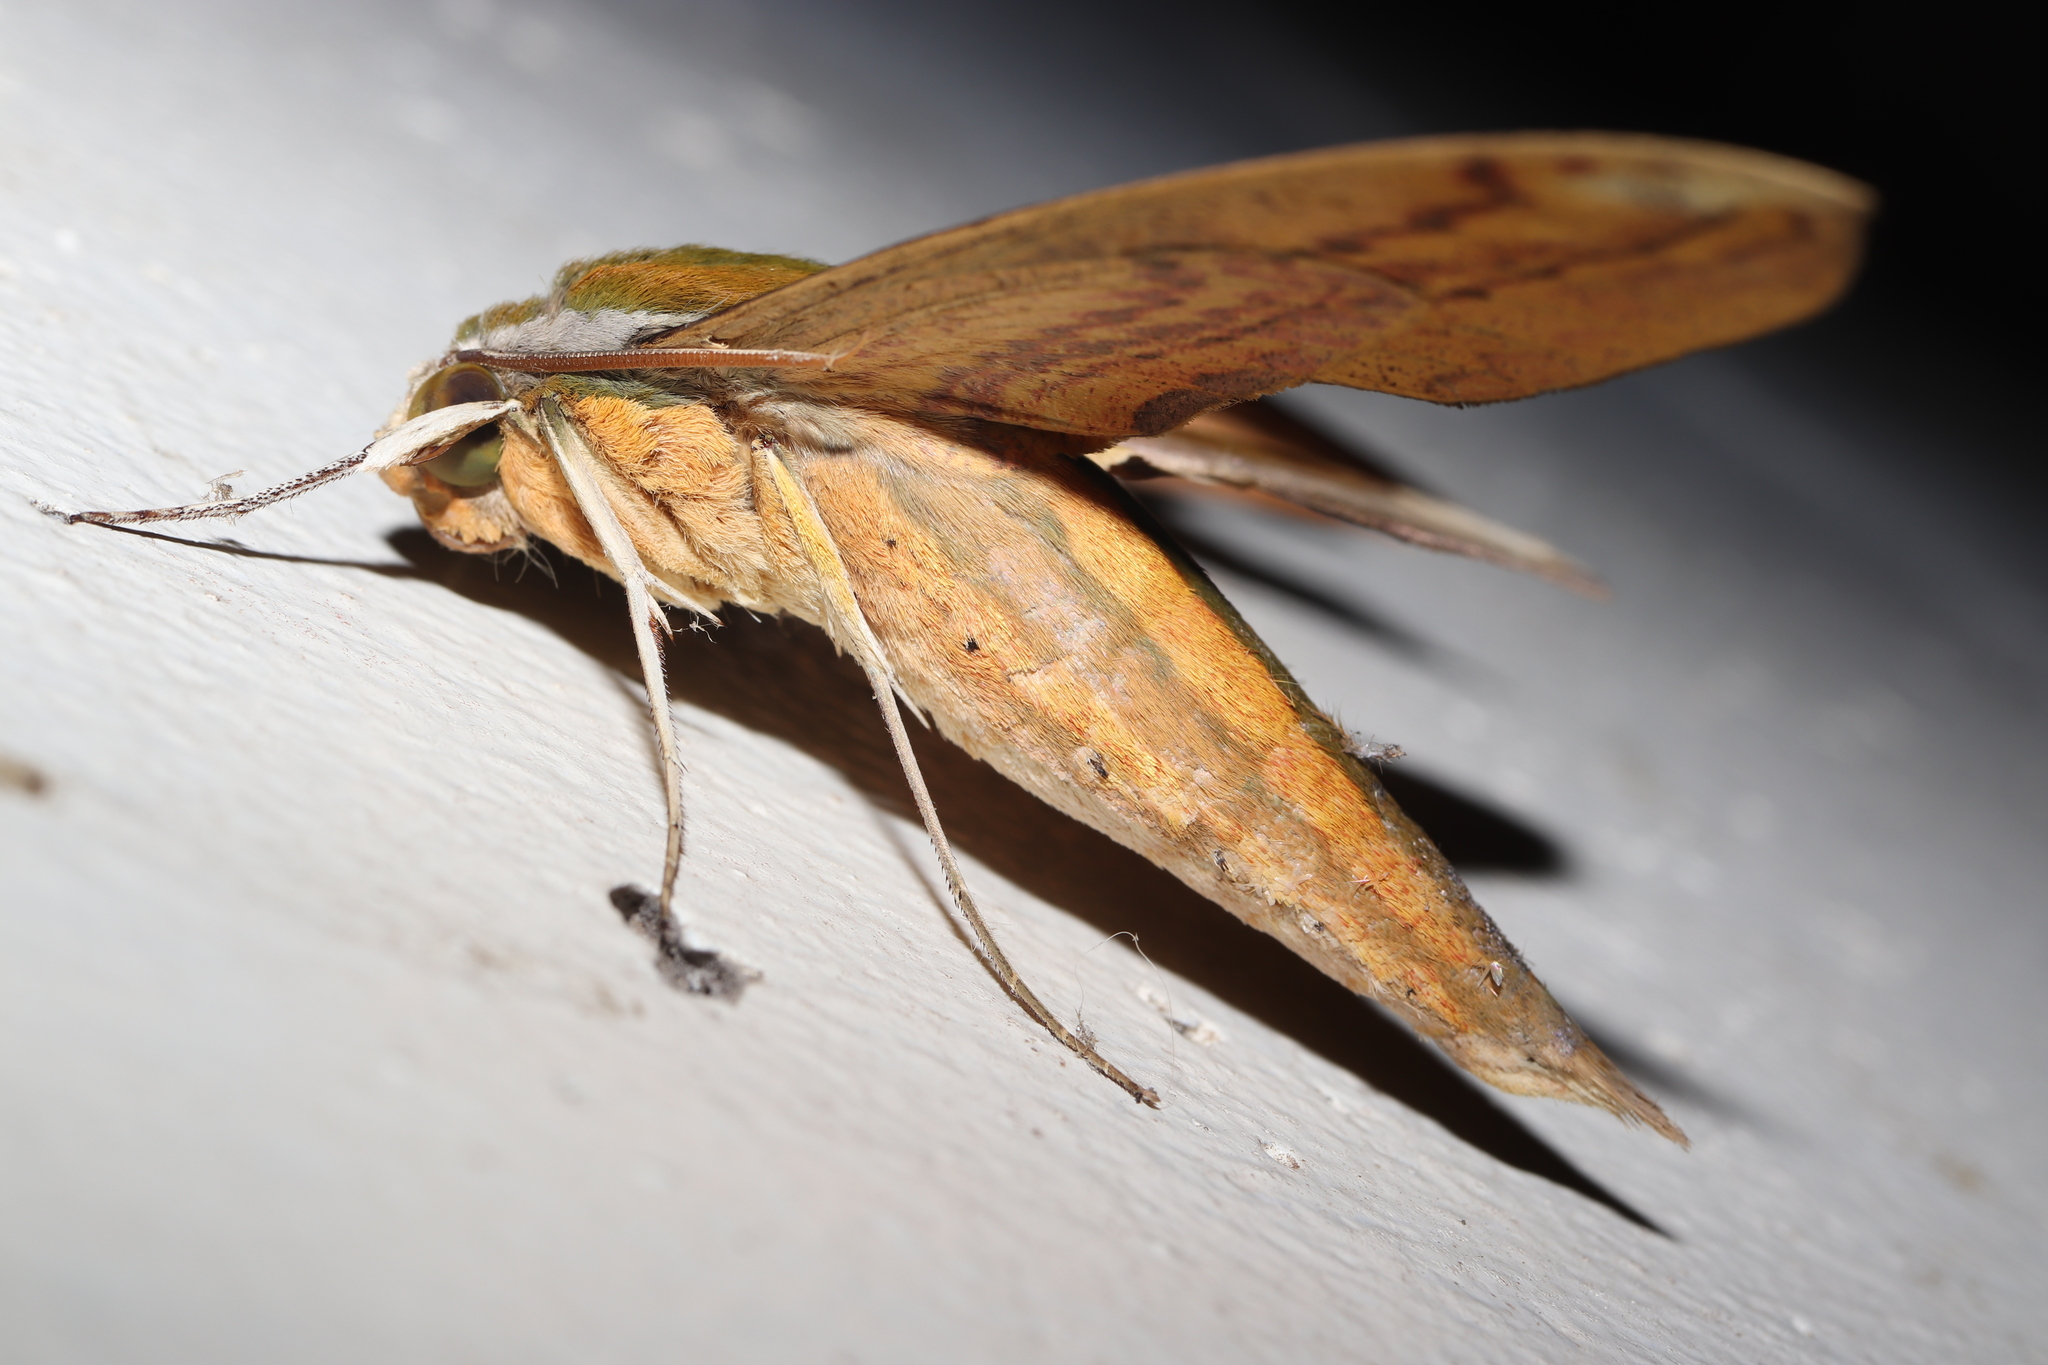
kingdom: Animalia
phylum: Arthropoda
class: Insecta
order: Lepidoptera
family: Sphingidae
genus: Theretra
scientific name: Theretra nessus
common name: Yam hawk moth
